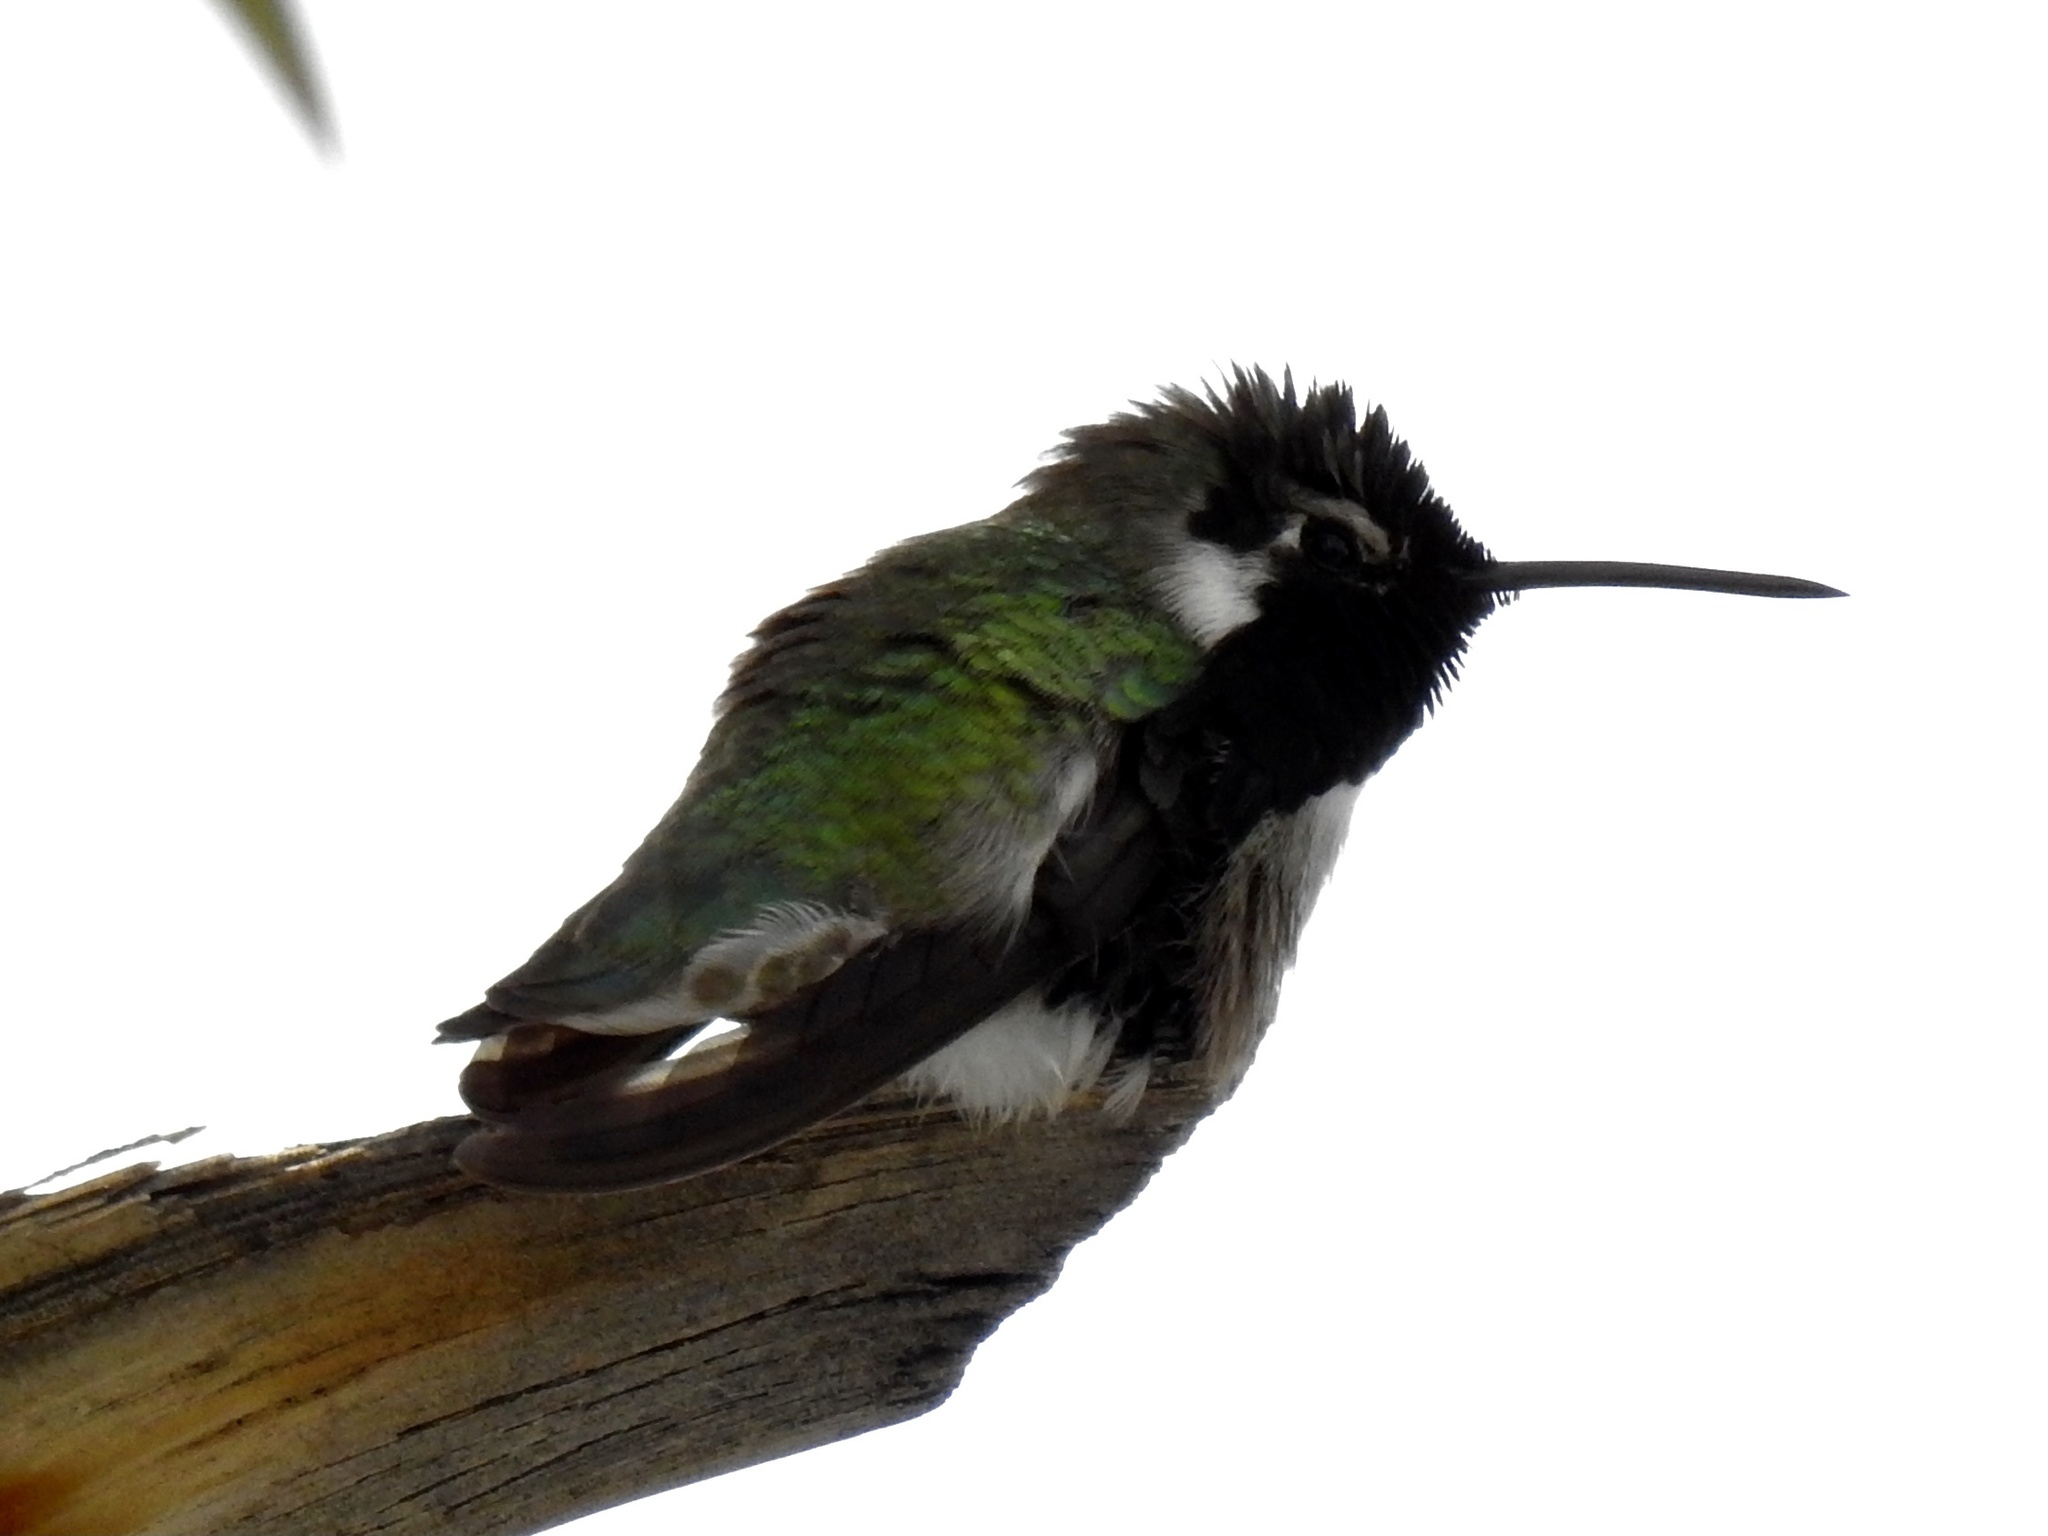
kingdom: Animalia
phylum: Chordata
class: Aves
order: Apodiformes
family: Trochilidae
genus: Calypte
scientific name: Calypte costae
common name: Costa's hummingbird
